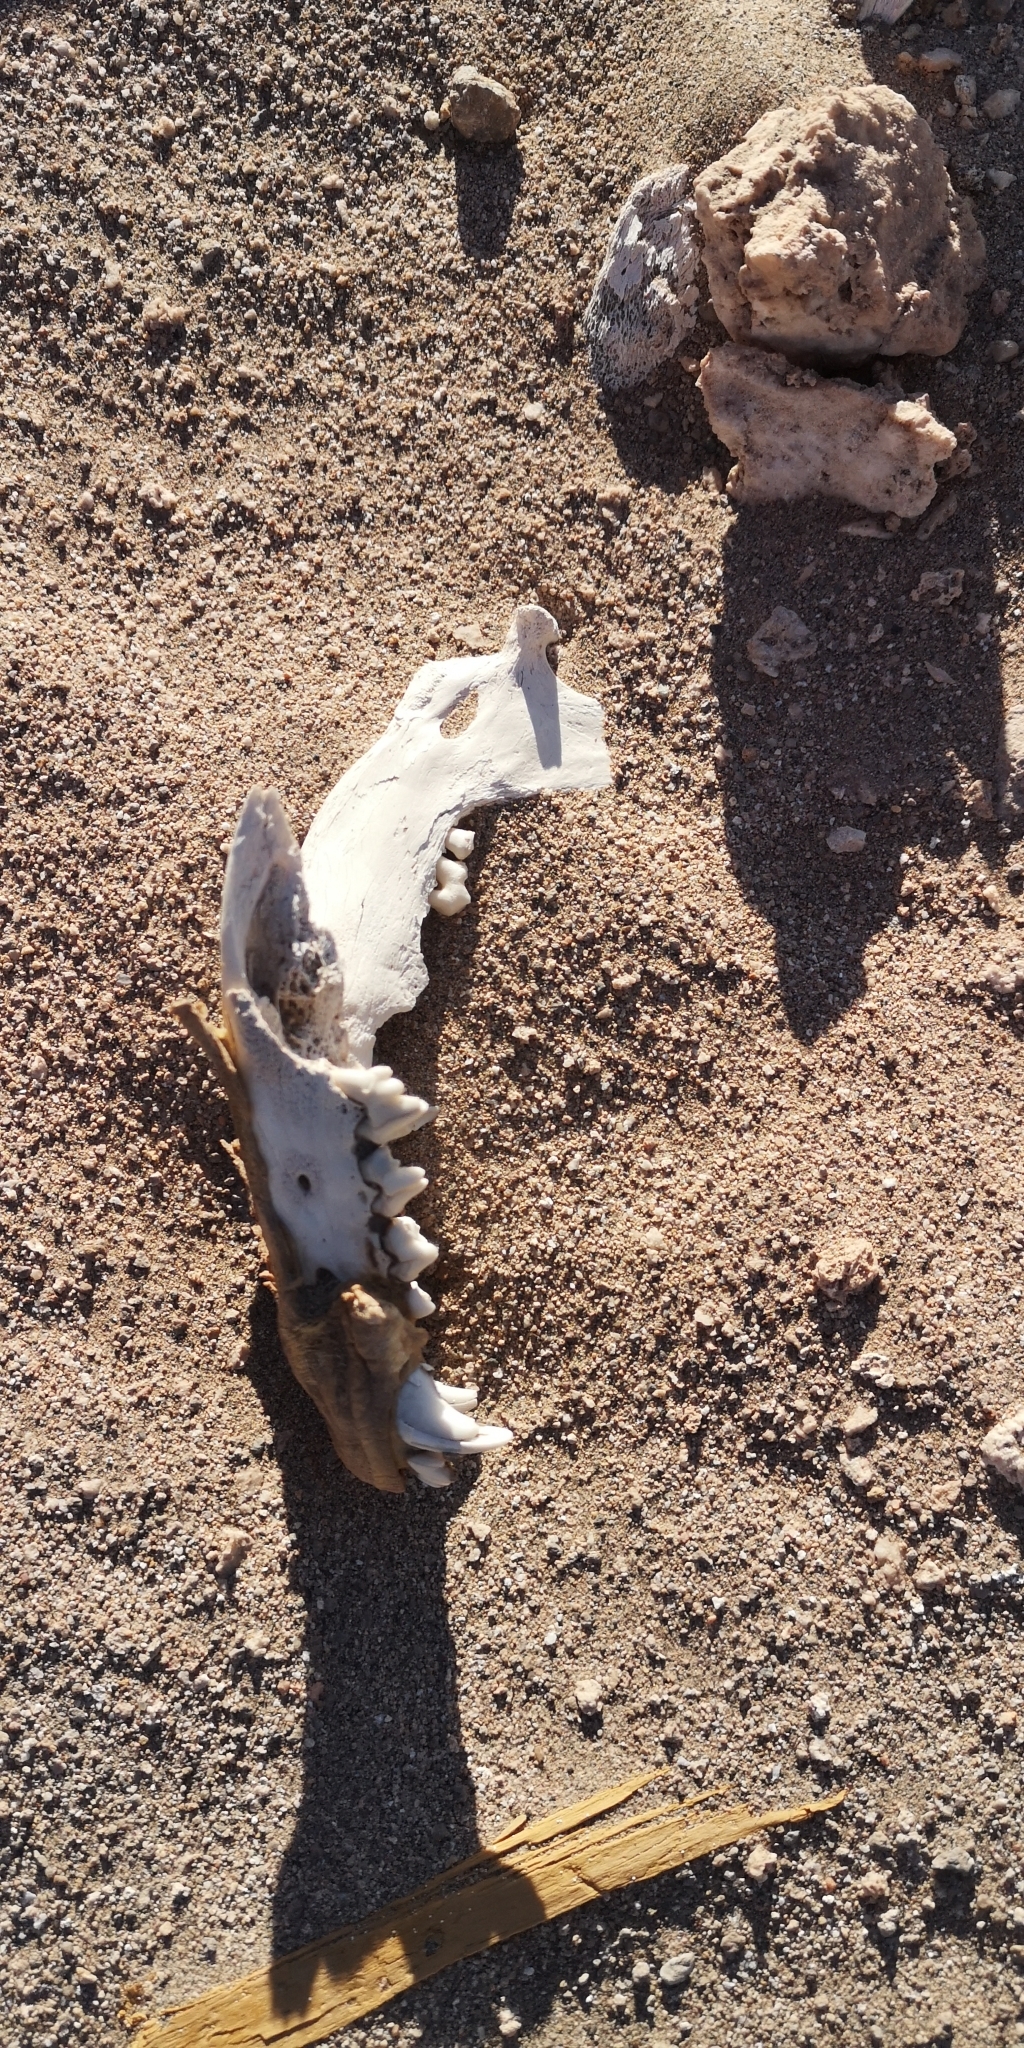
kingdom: Animalia
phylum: Chordata
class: Mammalia
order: Carnivora
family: Canidae
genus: Canis
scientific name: Canis lupus
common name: Gray wolf
